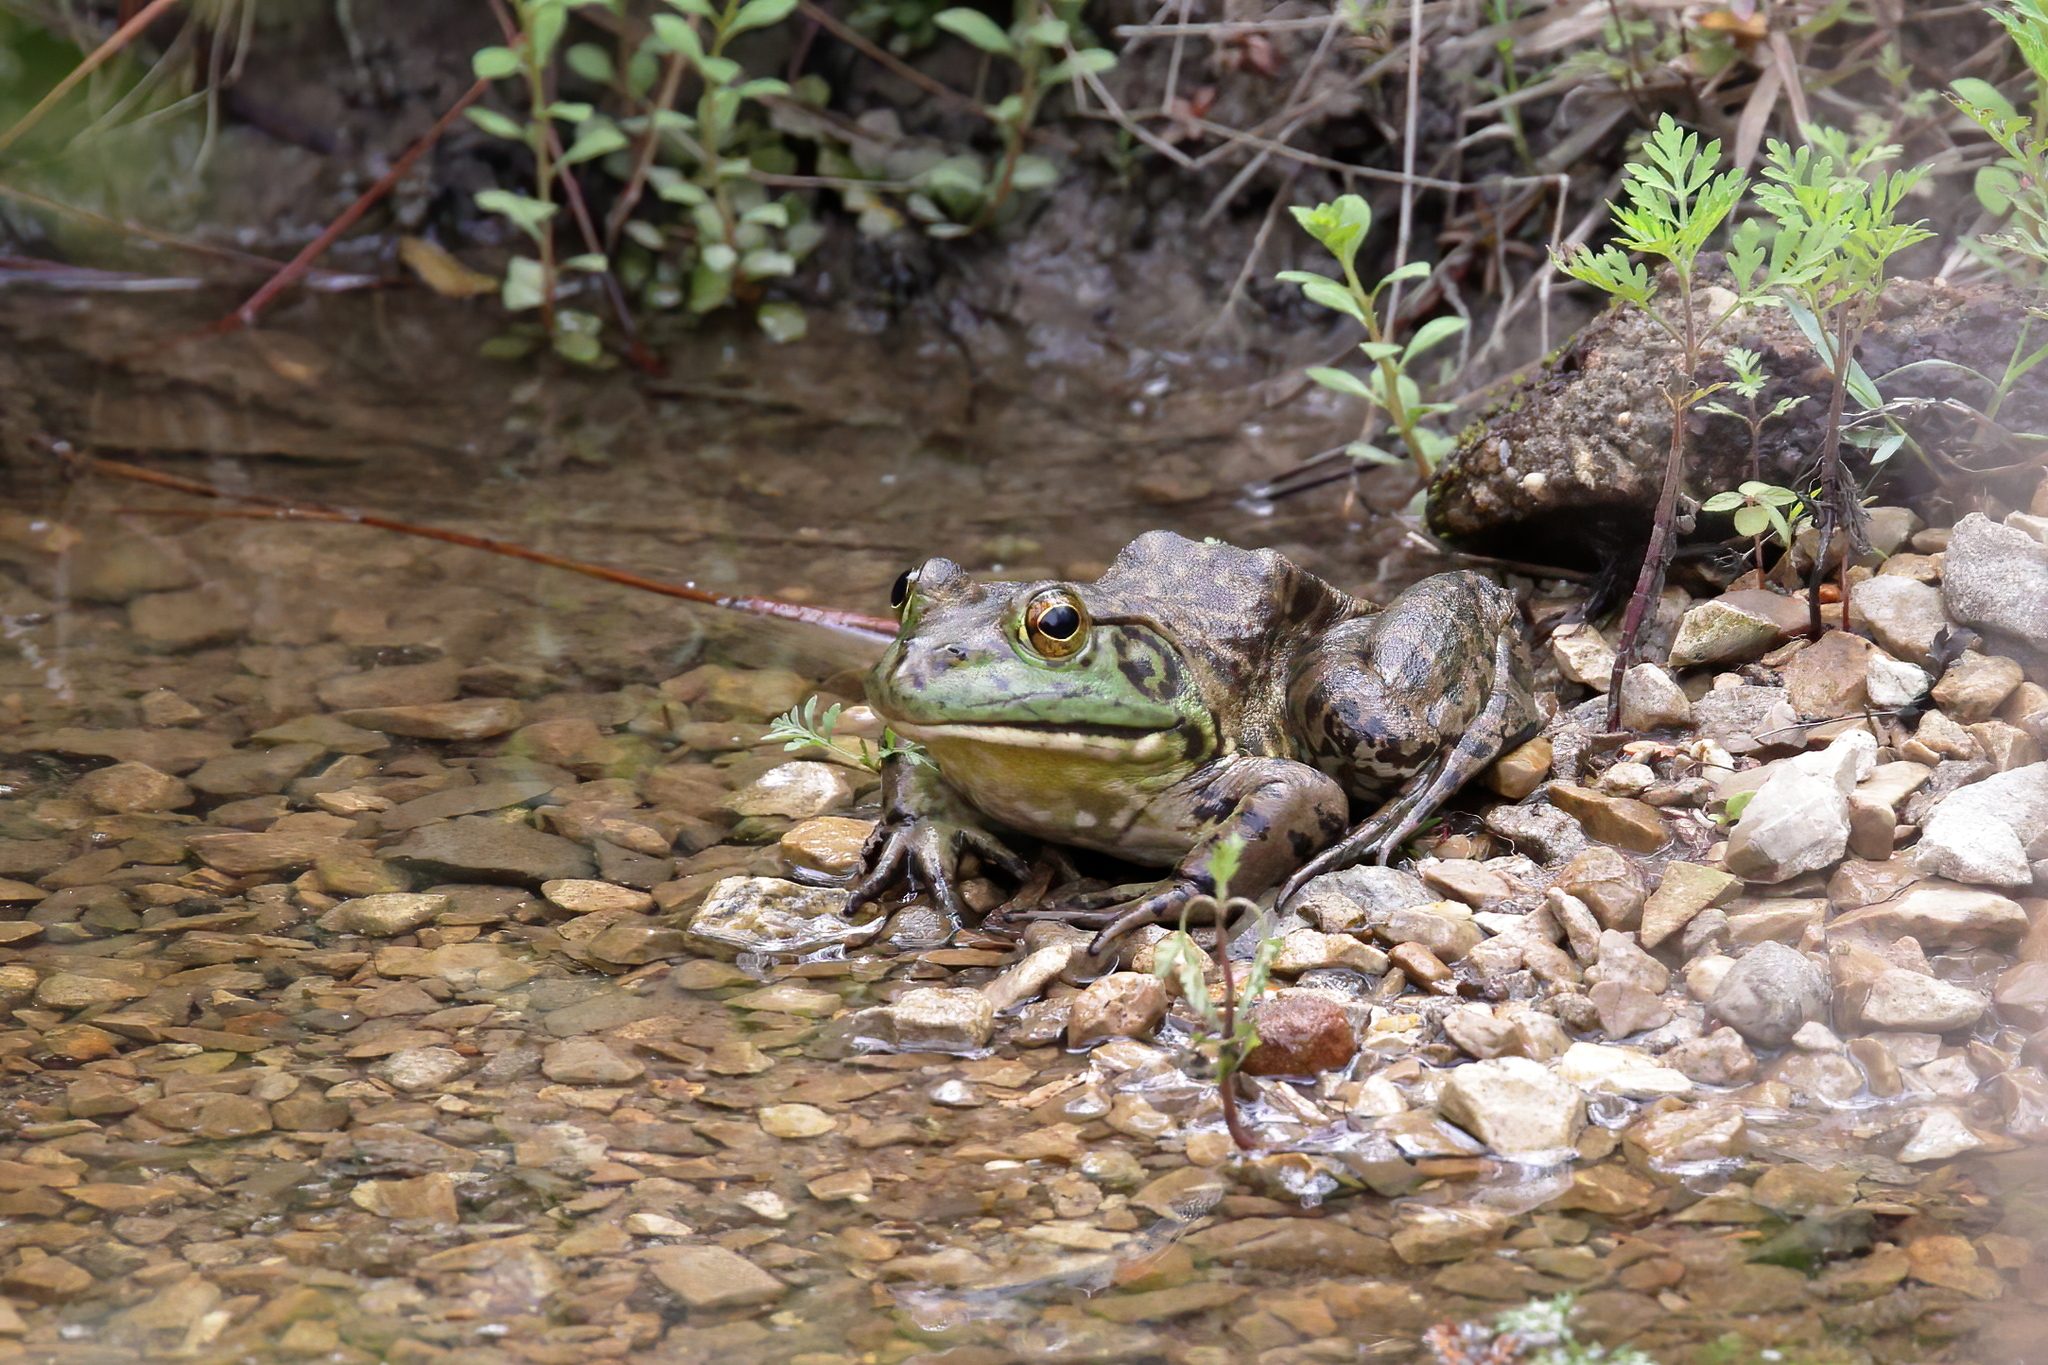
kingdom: Animalia
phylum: Chordata
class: Amphibia
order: Anura
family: Ranidae
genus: Lithobates
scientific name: Lithobates catesbeianus
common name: American bullfrog
